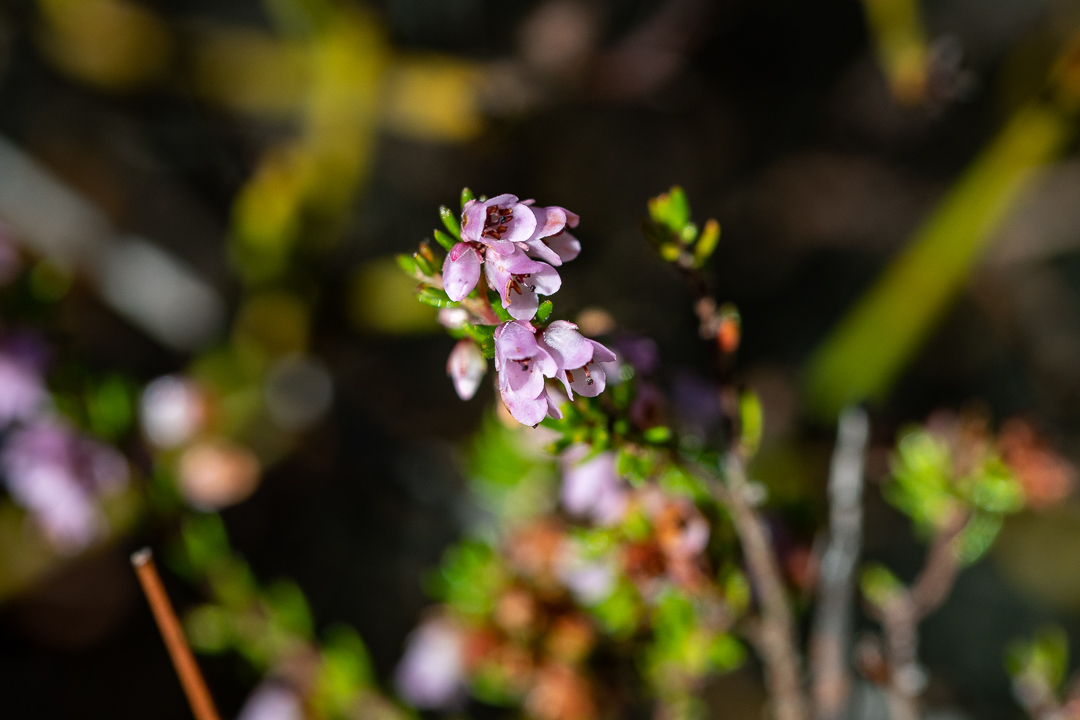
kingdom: Plantae
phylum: Tracheophyta
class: Magnoliopsida
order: Ericales
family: Ericaceae
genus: Erica
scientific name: Erica intervallaris
